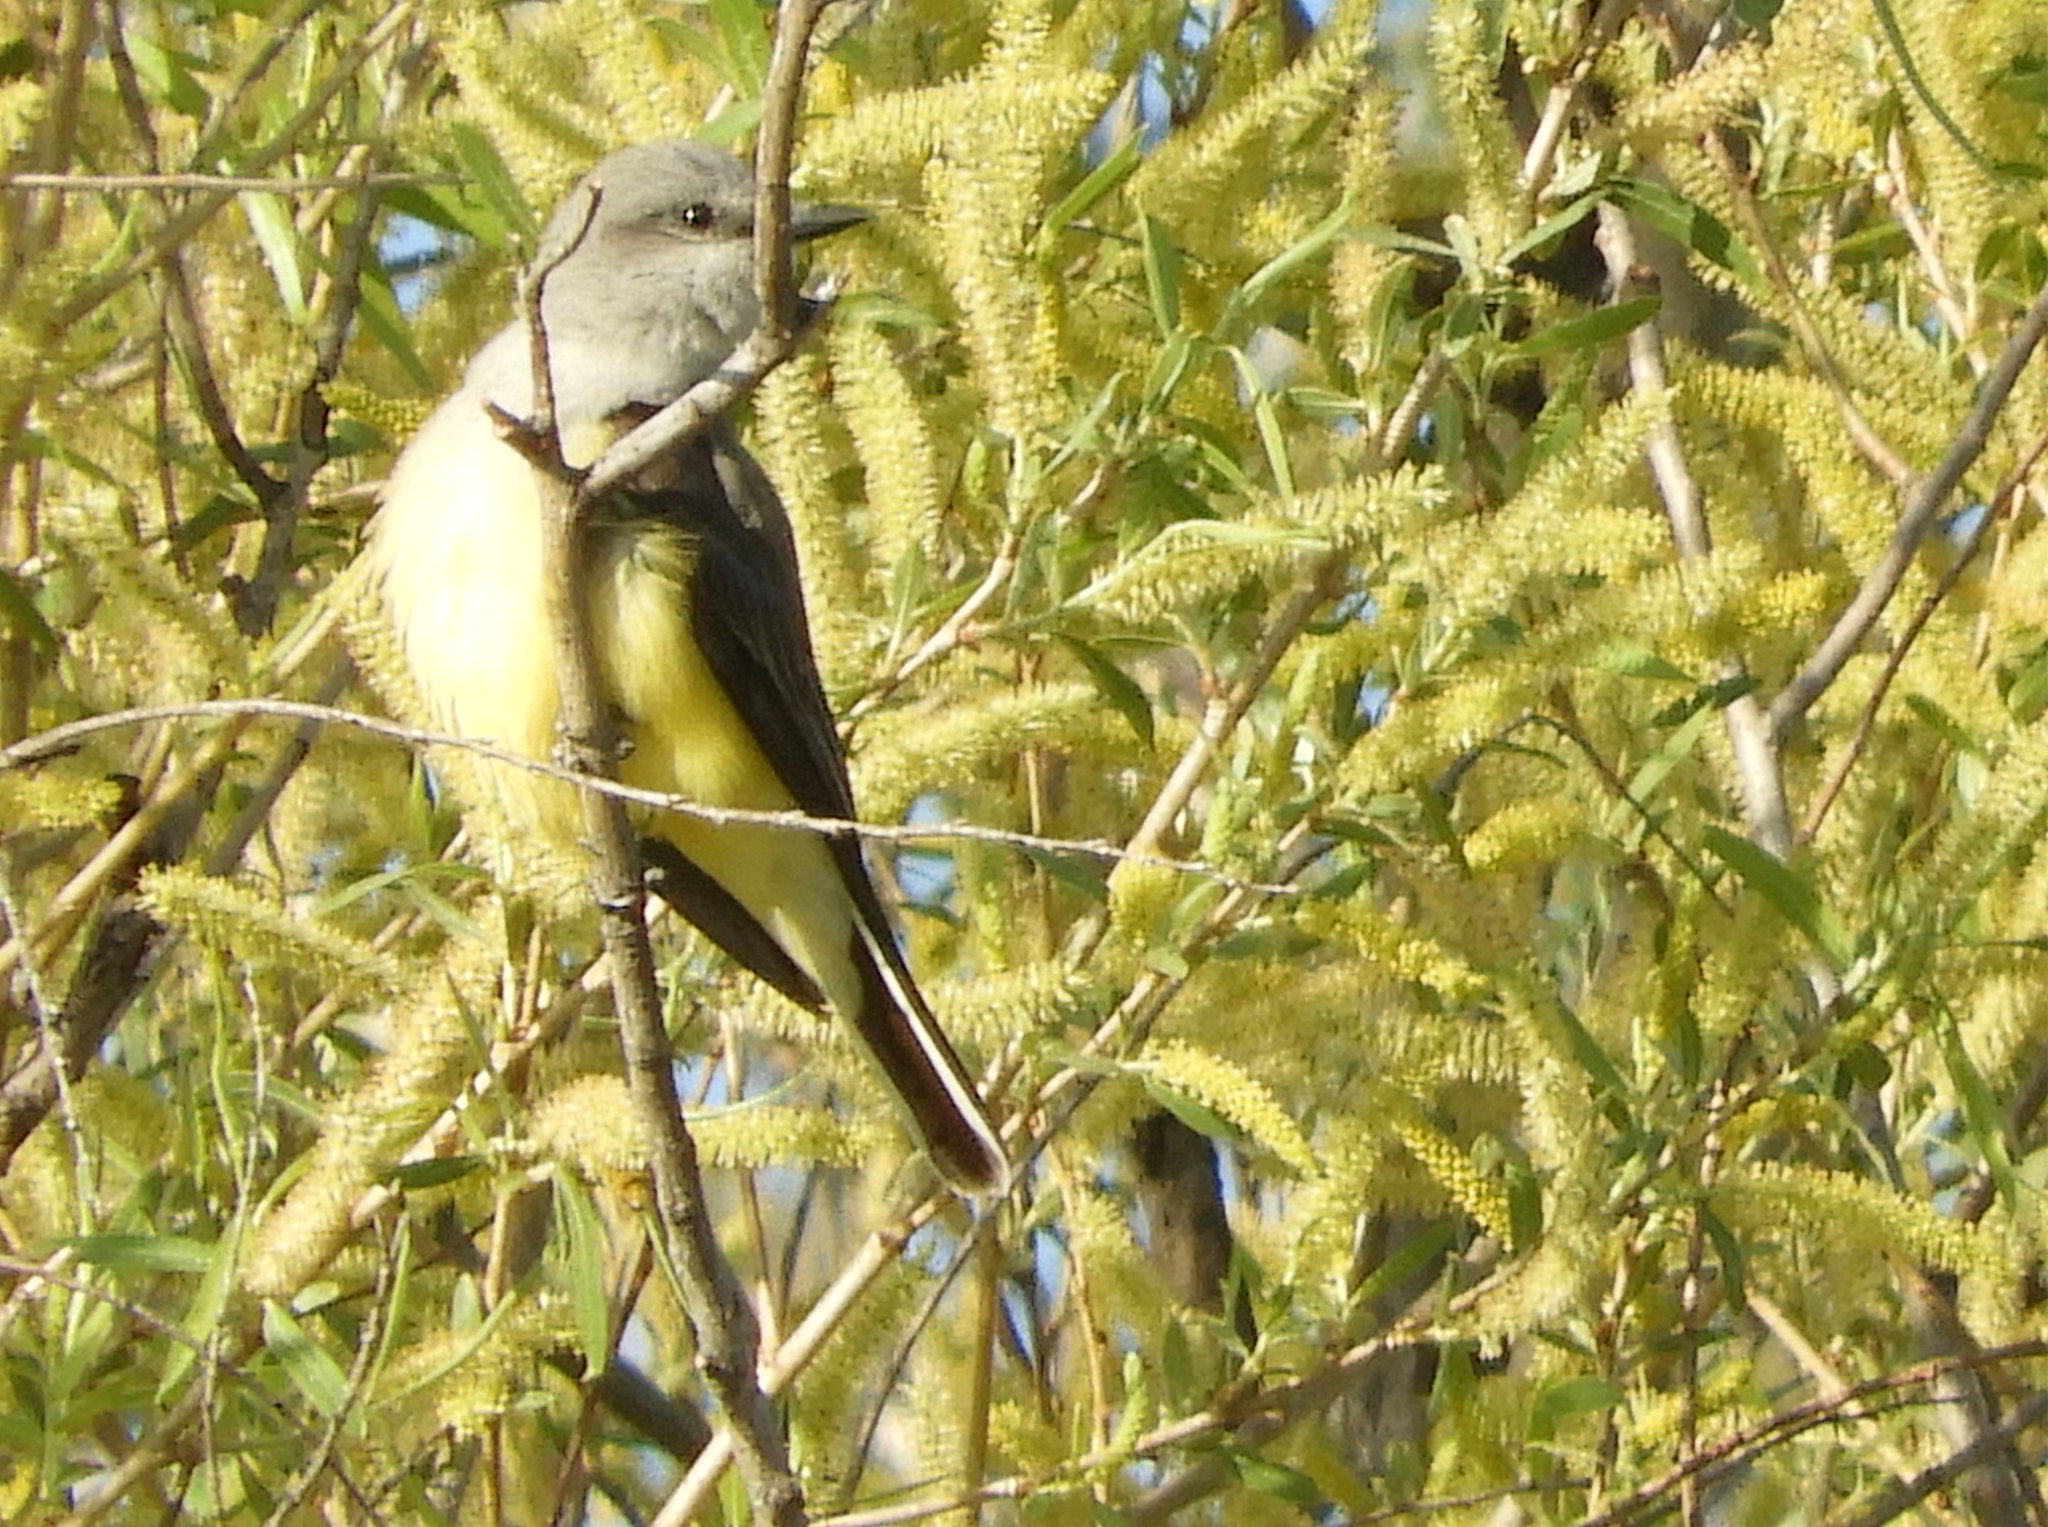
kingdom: Animalia
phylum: Chordata
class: Aves
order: Passeriformes
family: Tyrannidae
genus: Tyrannus
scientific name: Tyrannus verticalis
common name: Western kingbird
